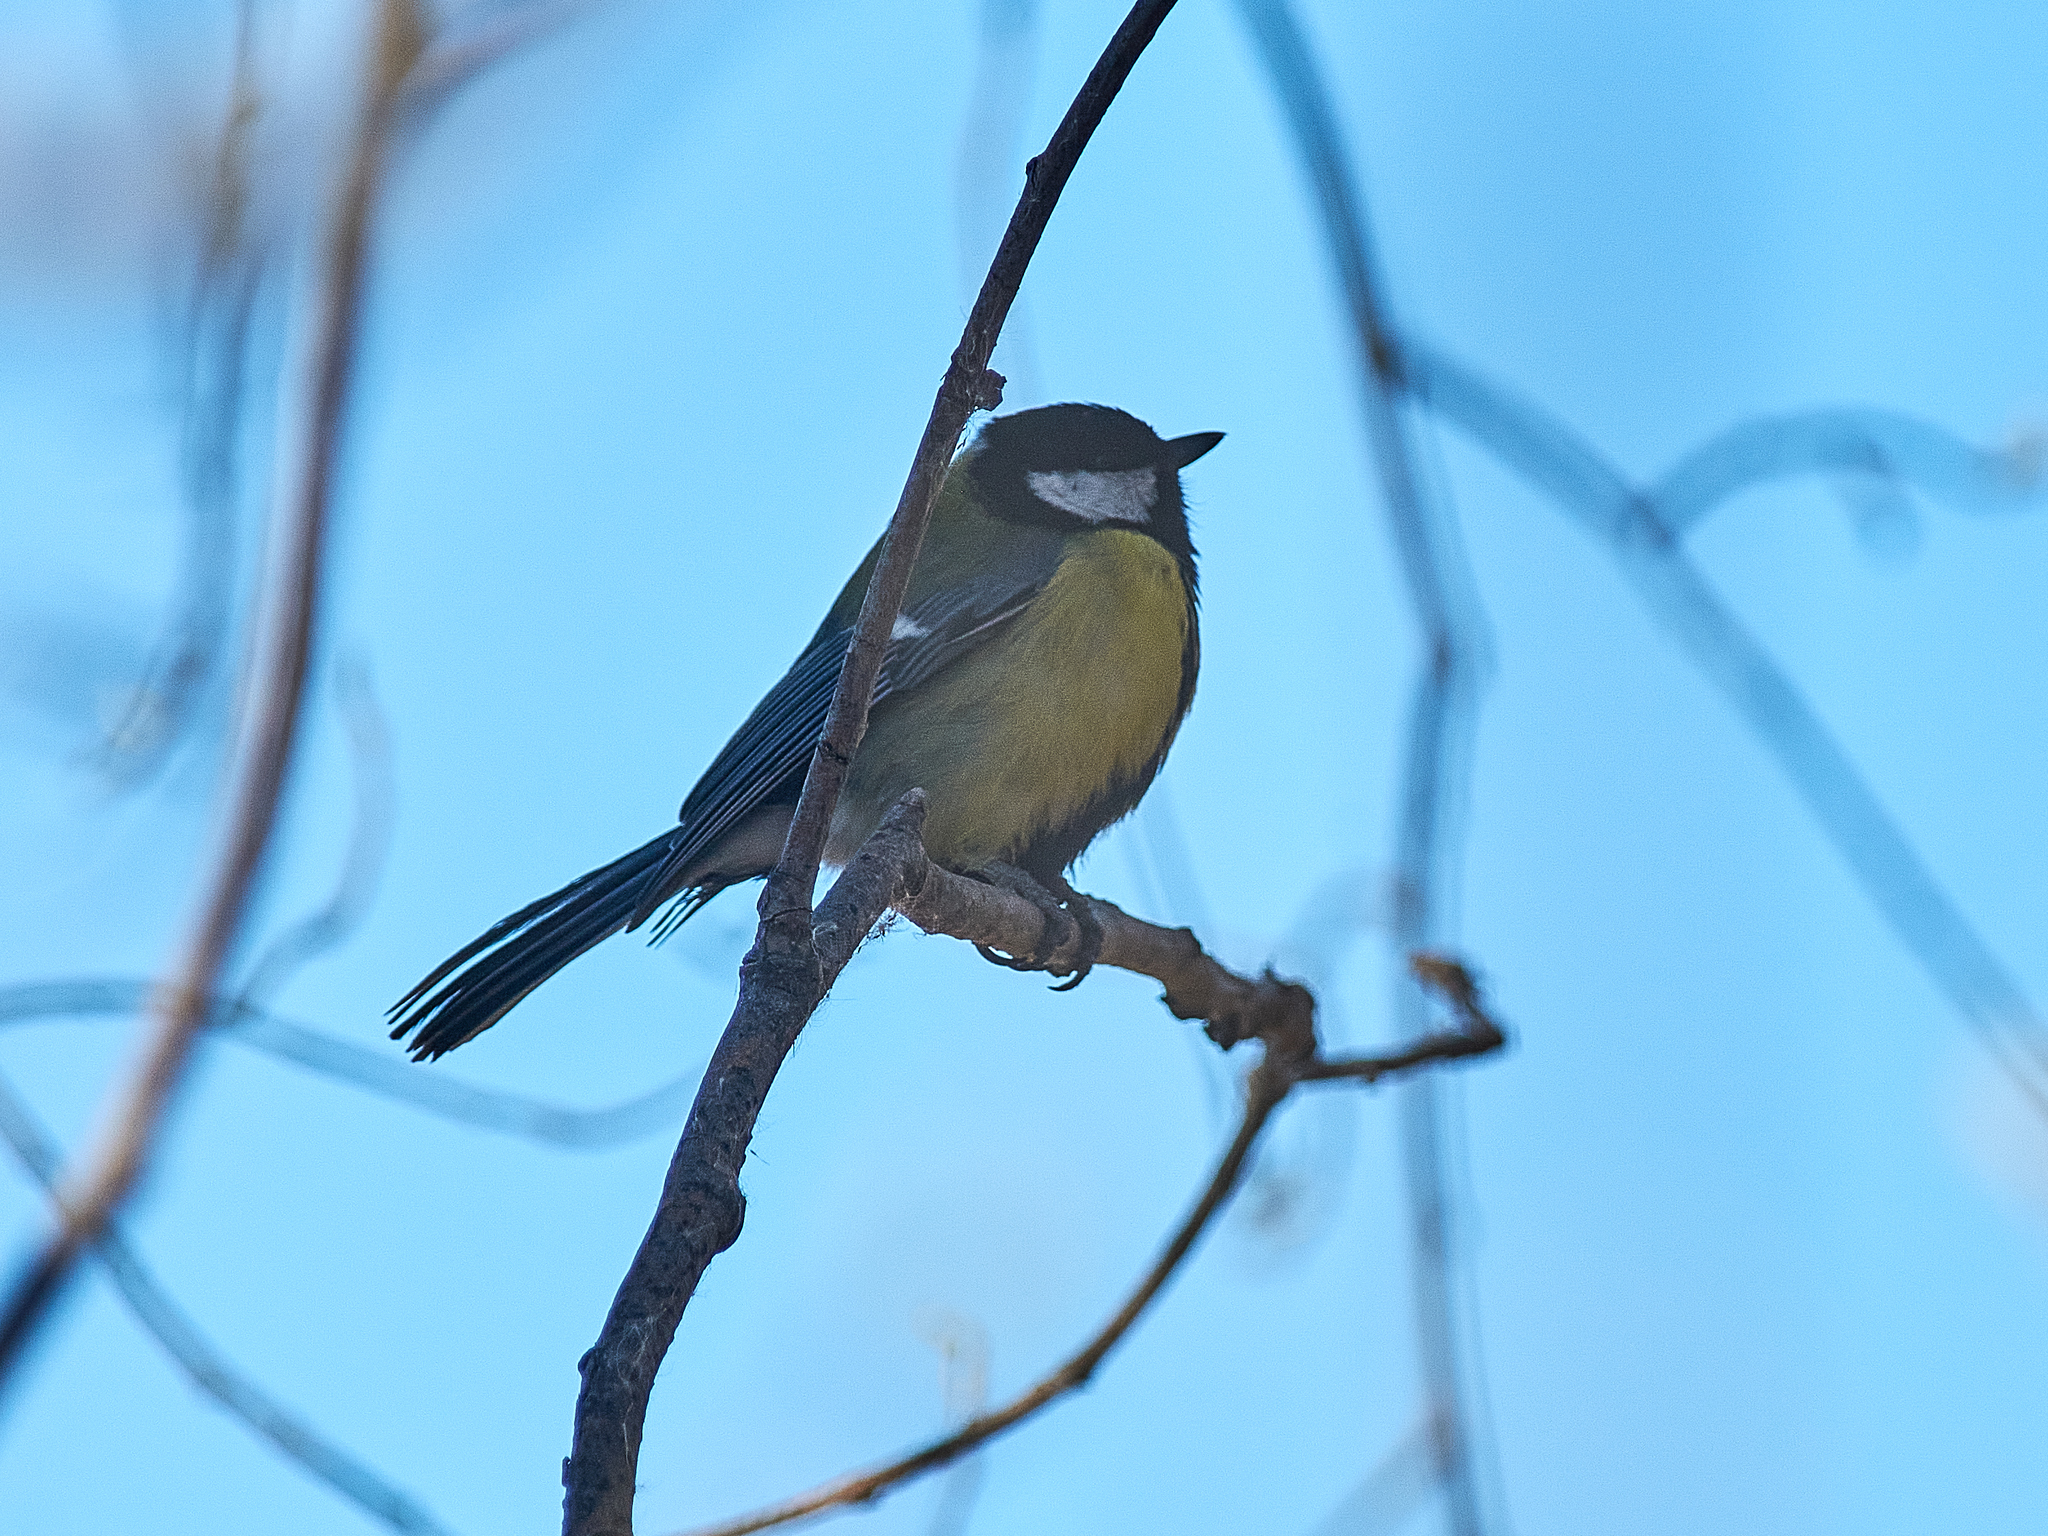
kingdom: Animalia
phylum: Chordata
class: Aves
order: Passeriformes
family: Paridae
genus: Parus
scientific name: Parus major
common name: Great tit
